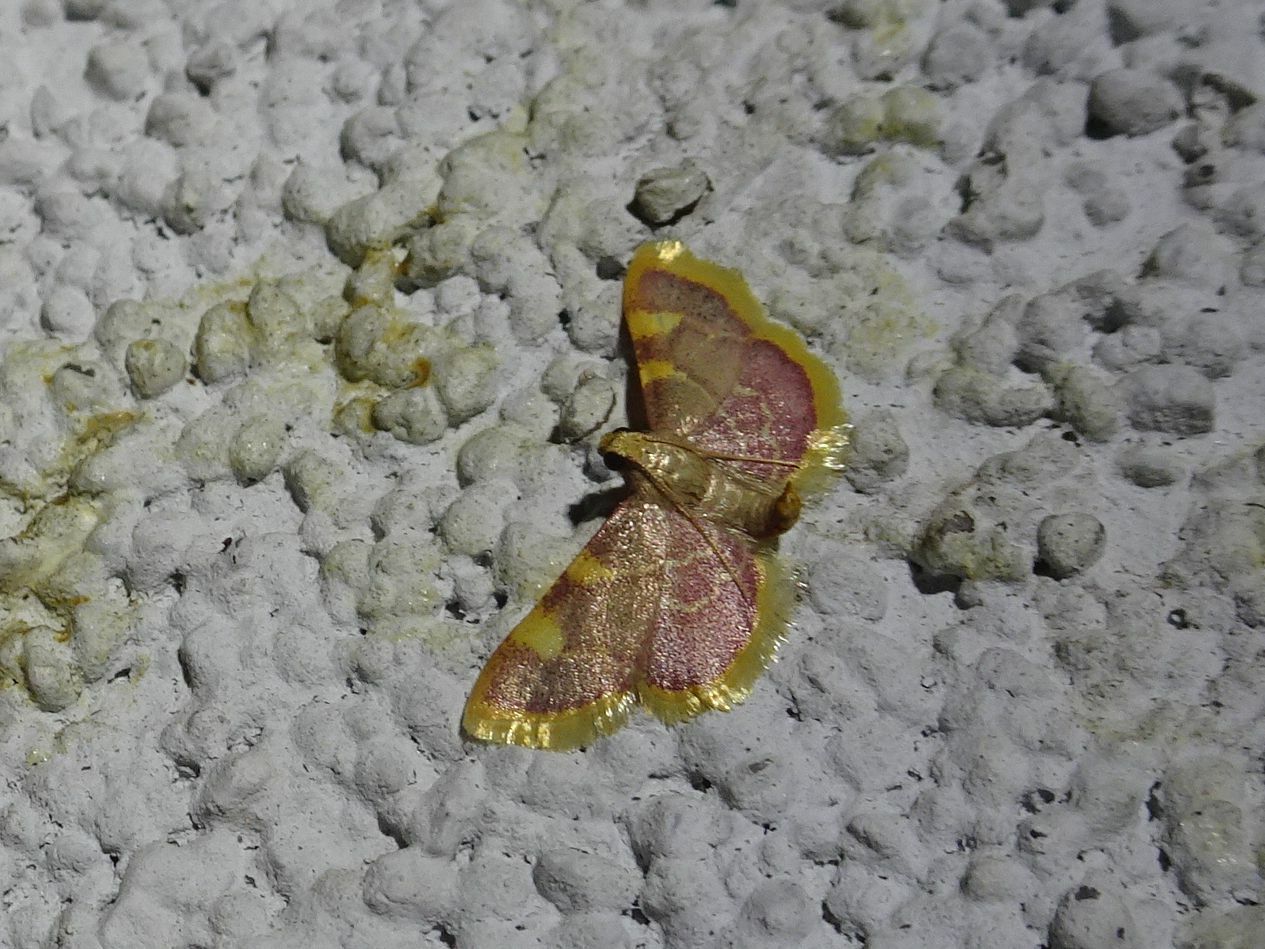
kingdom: Animalia
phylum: Arthropoda
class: Insecta
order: Lepidoptera
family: Pyralidae
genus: Hypsopygia
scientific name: Hypsopygia costalis
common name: Gold triangle
